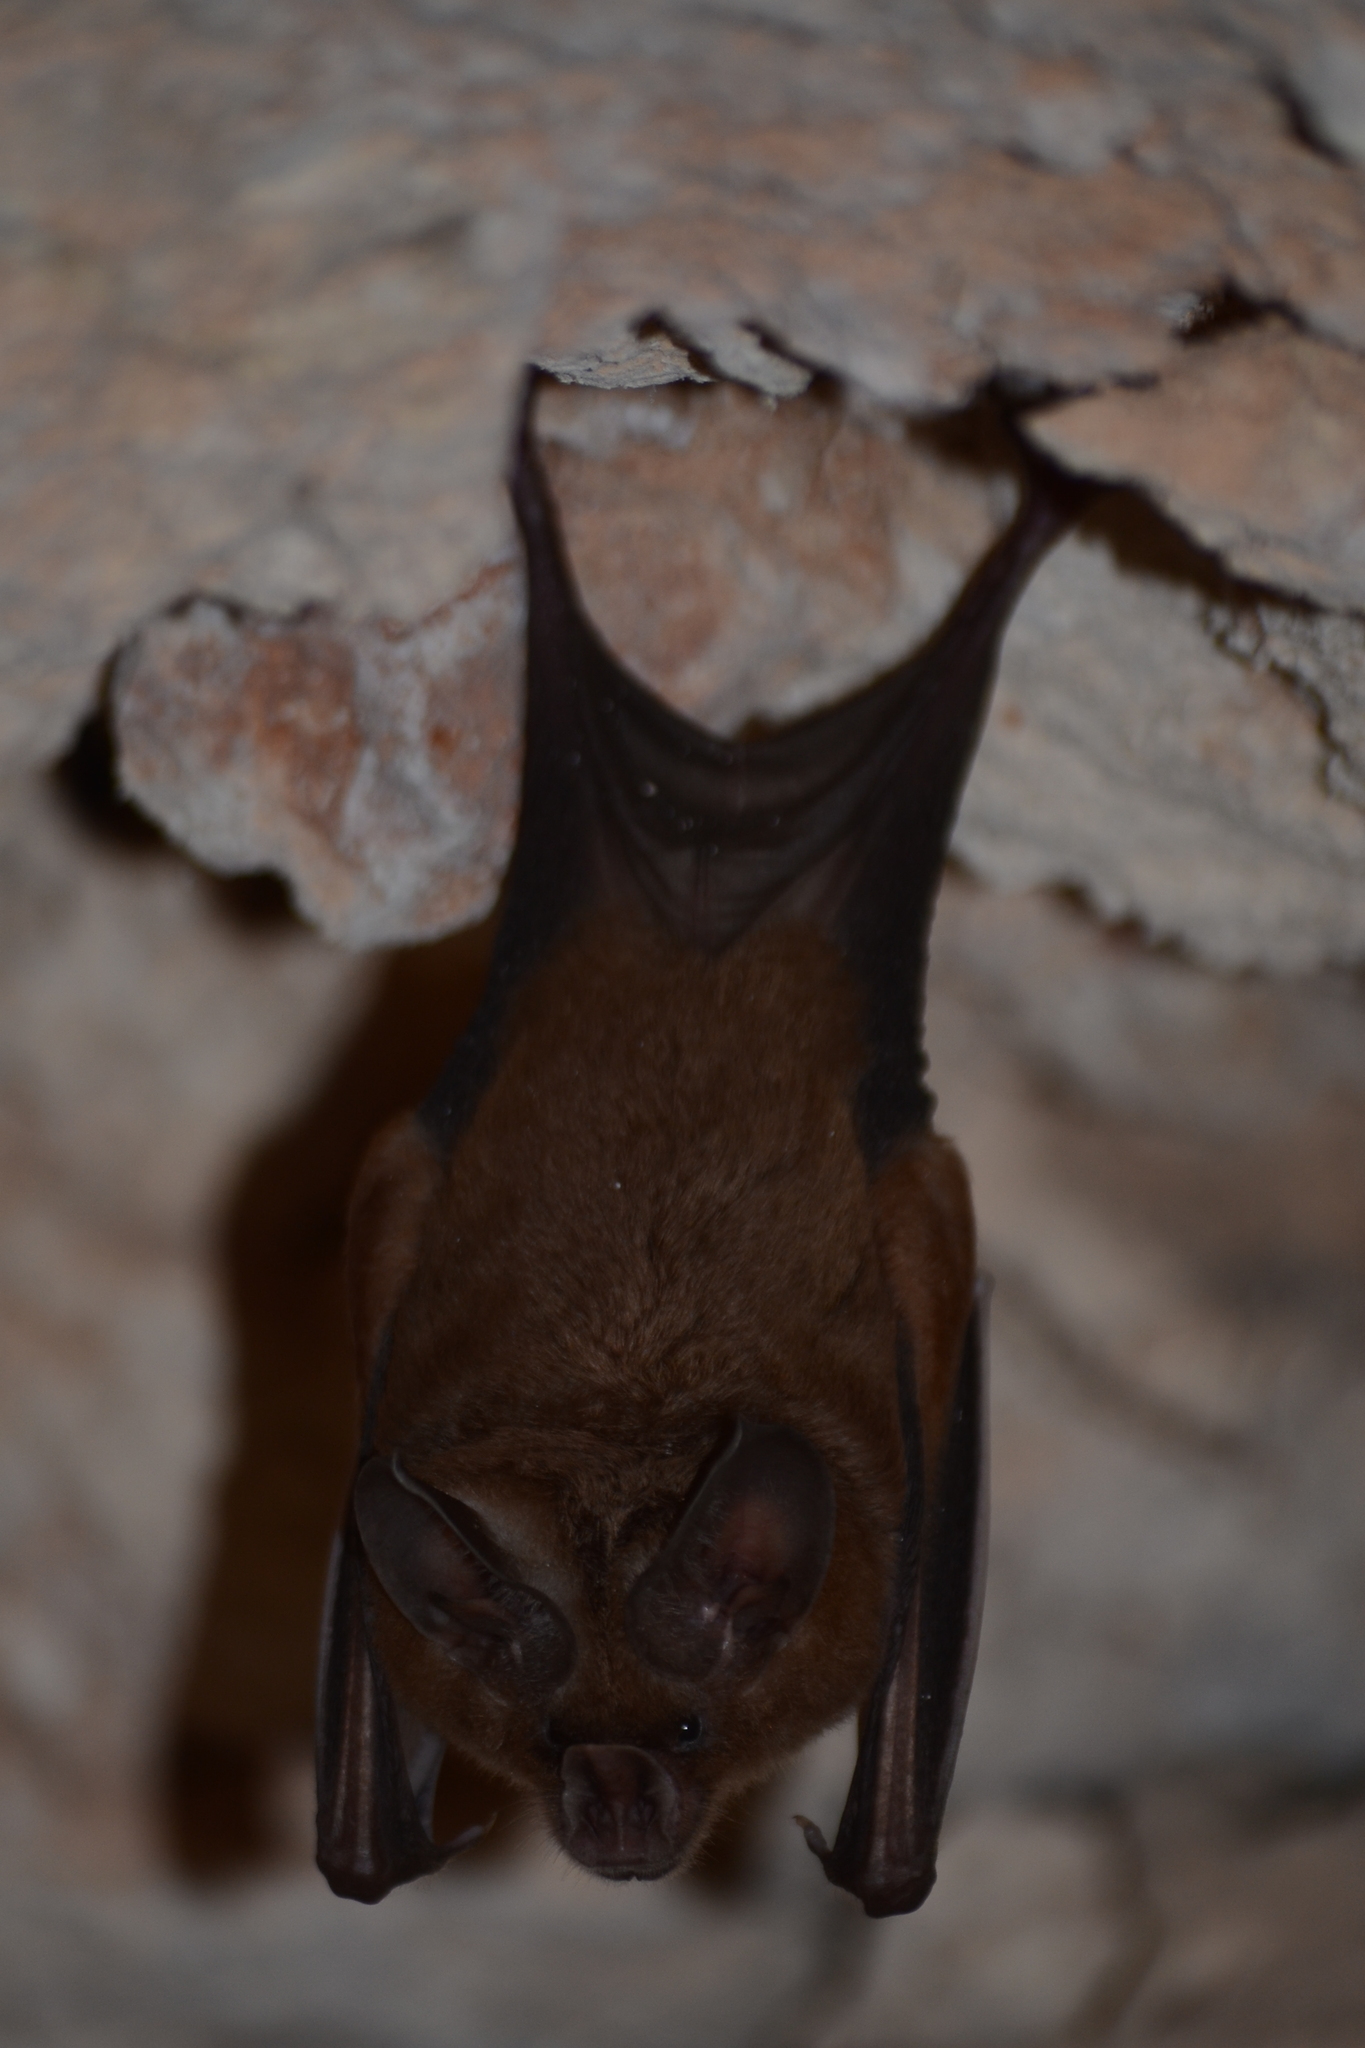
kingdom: Animalia
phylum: Chordata
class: Mammalia
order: Chiroptera
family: Phyllostomidae
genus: Mimon
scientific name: Mimon cozumelae
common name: Cozumelan golden bat
